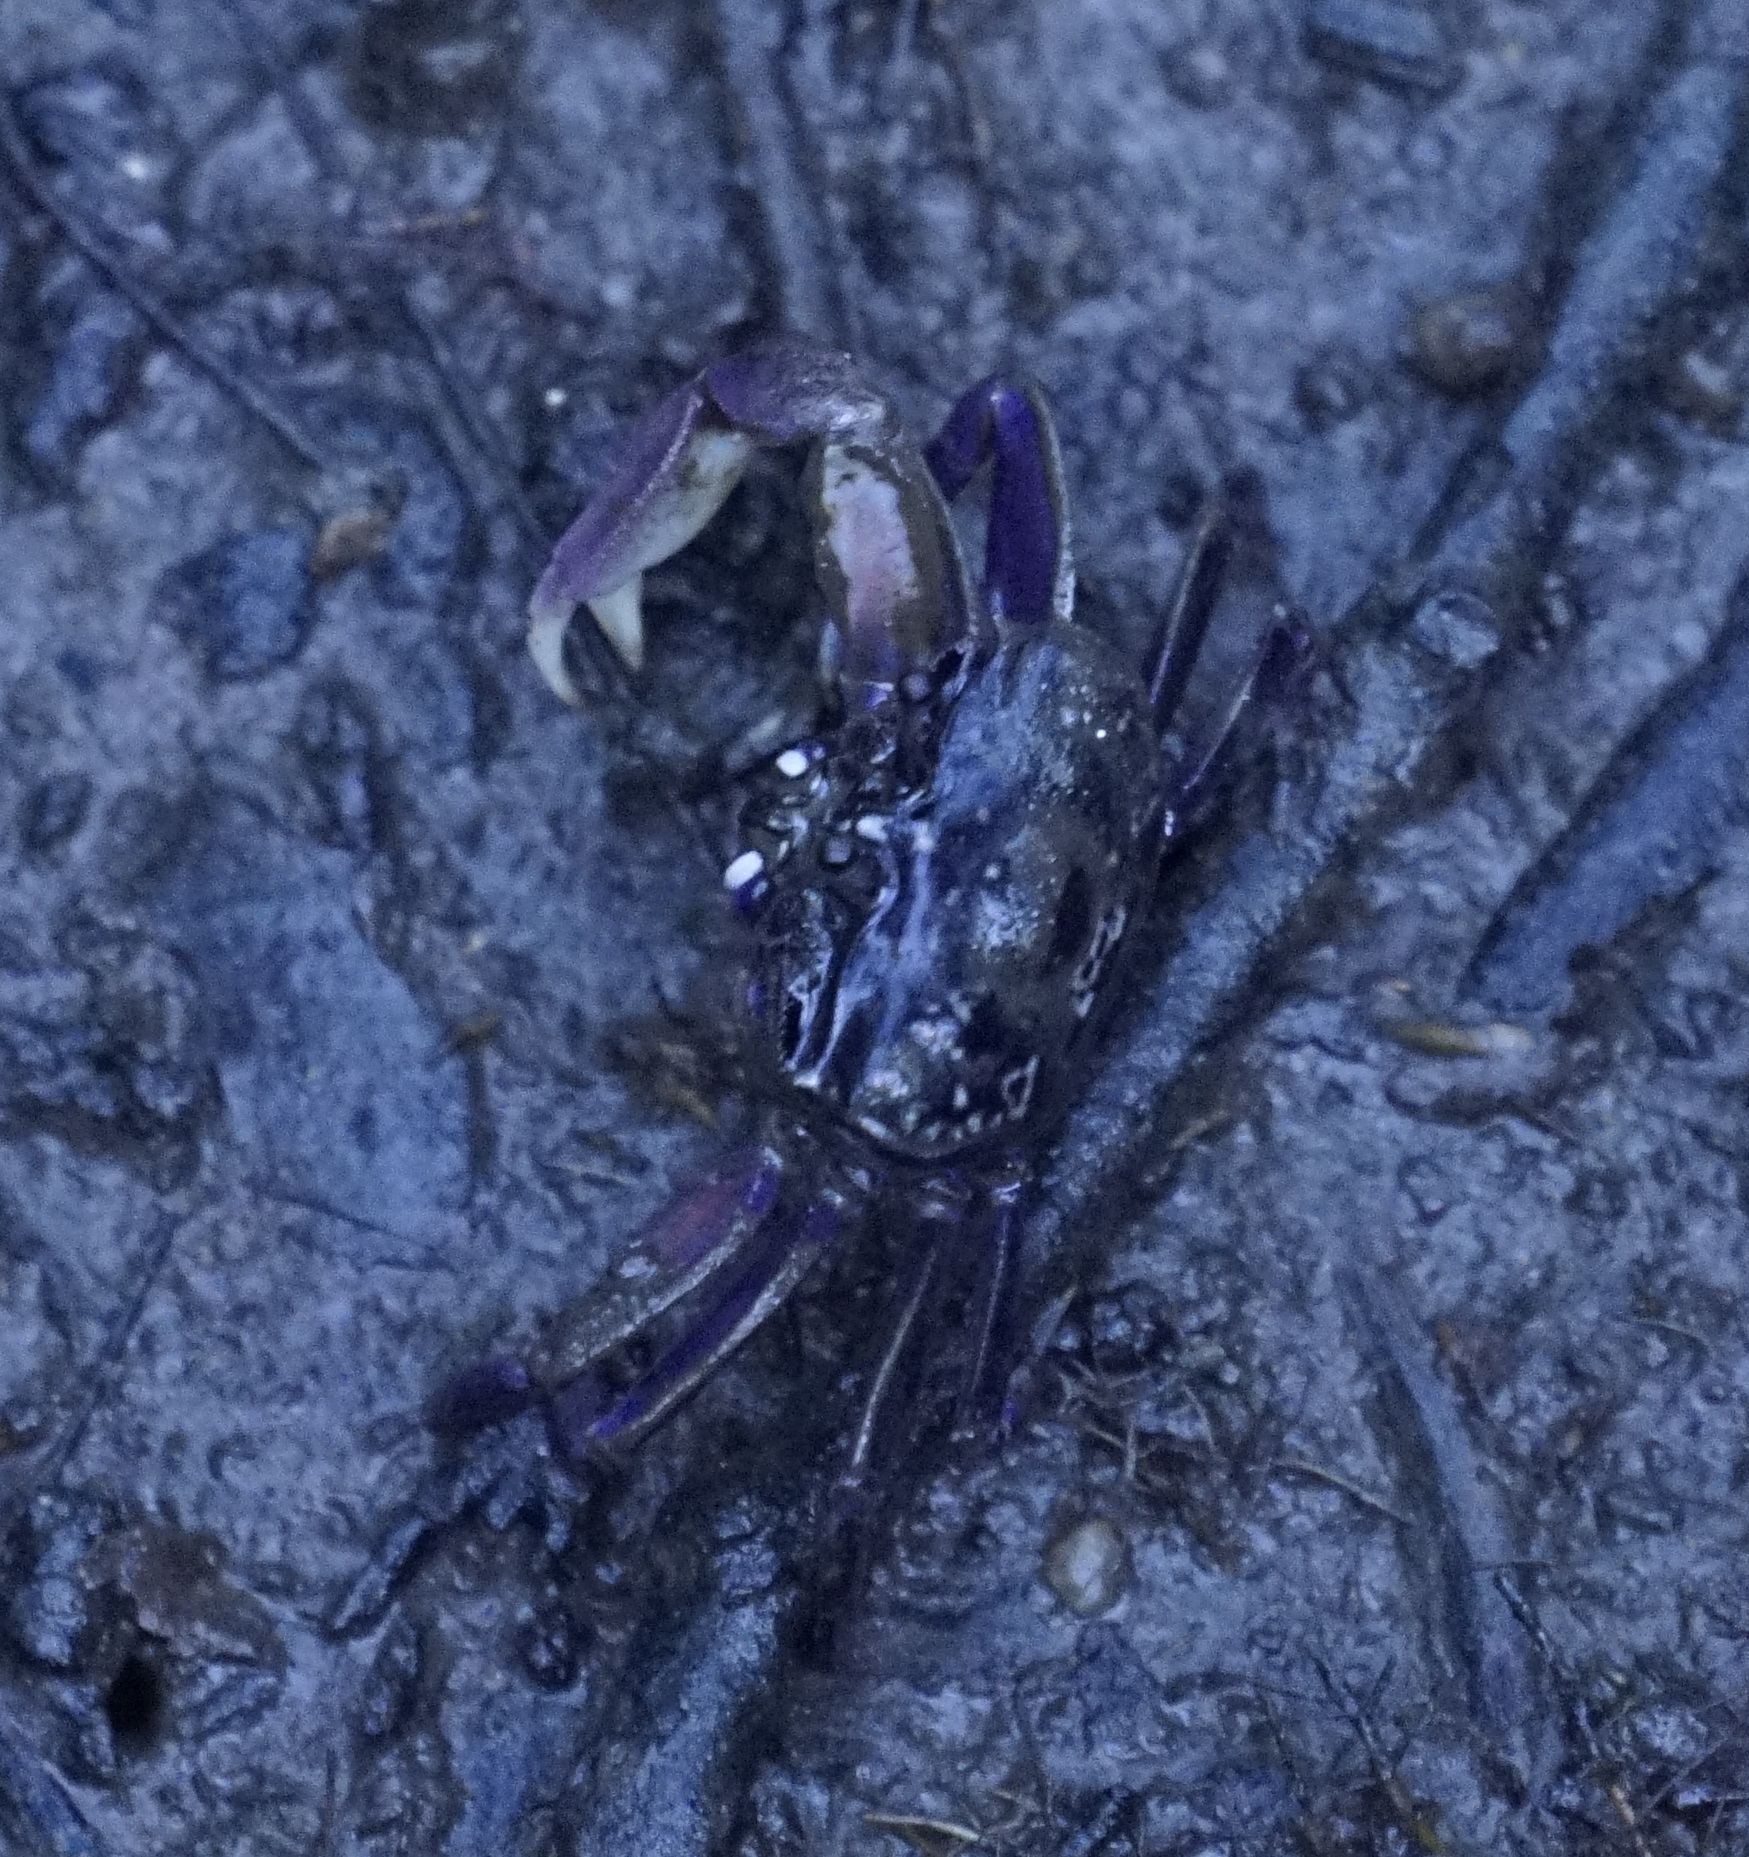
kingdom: Animalia
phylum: Arthropoda
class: Malacostraca
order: Decapoda
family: Heloeciidae
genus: Heloecius
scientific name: Heloecius cordiformis
